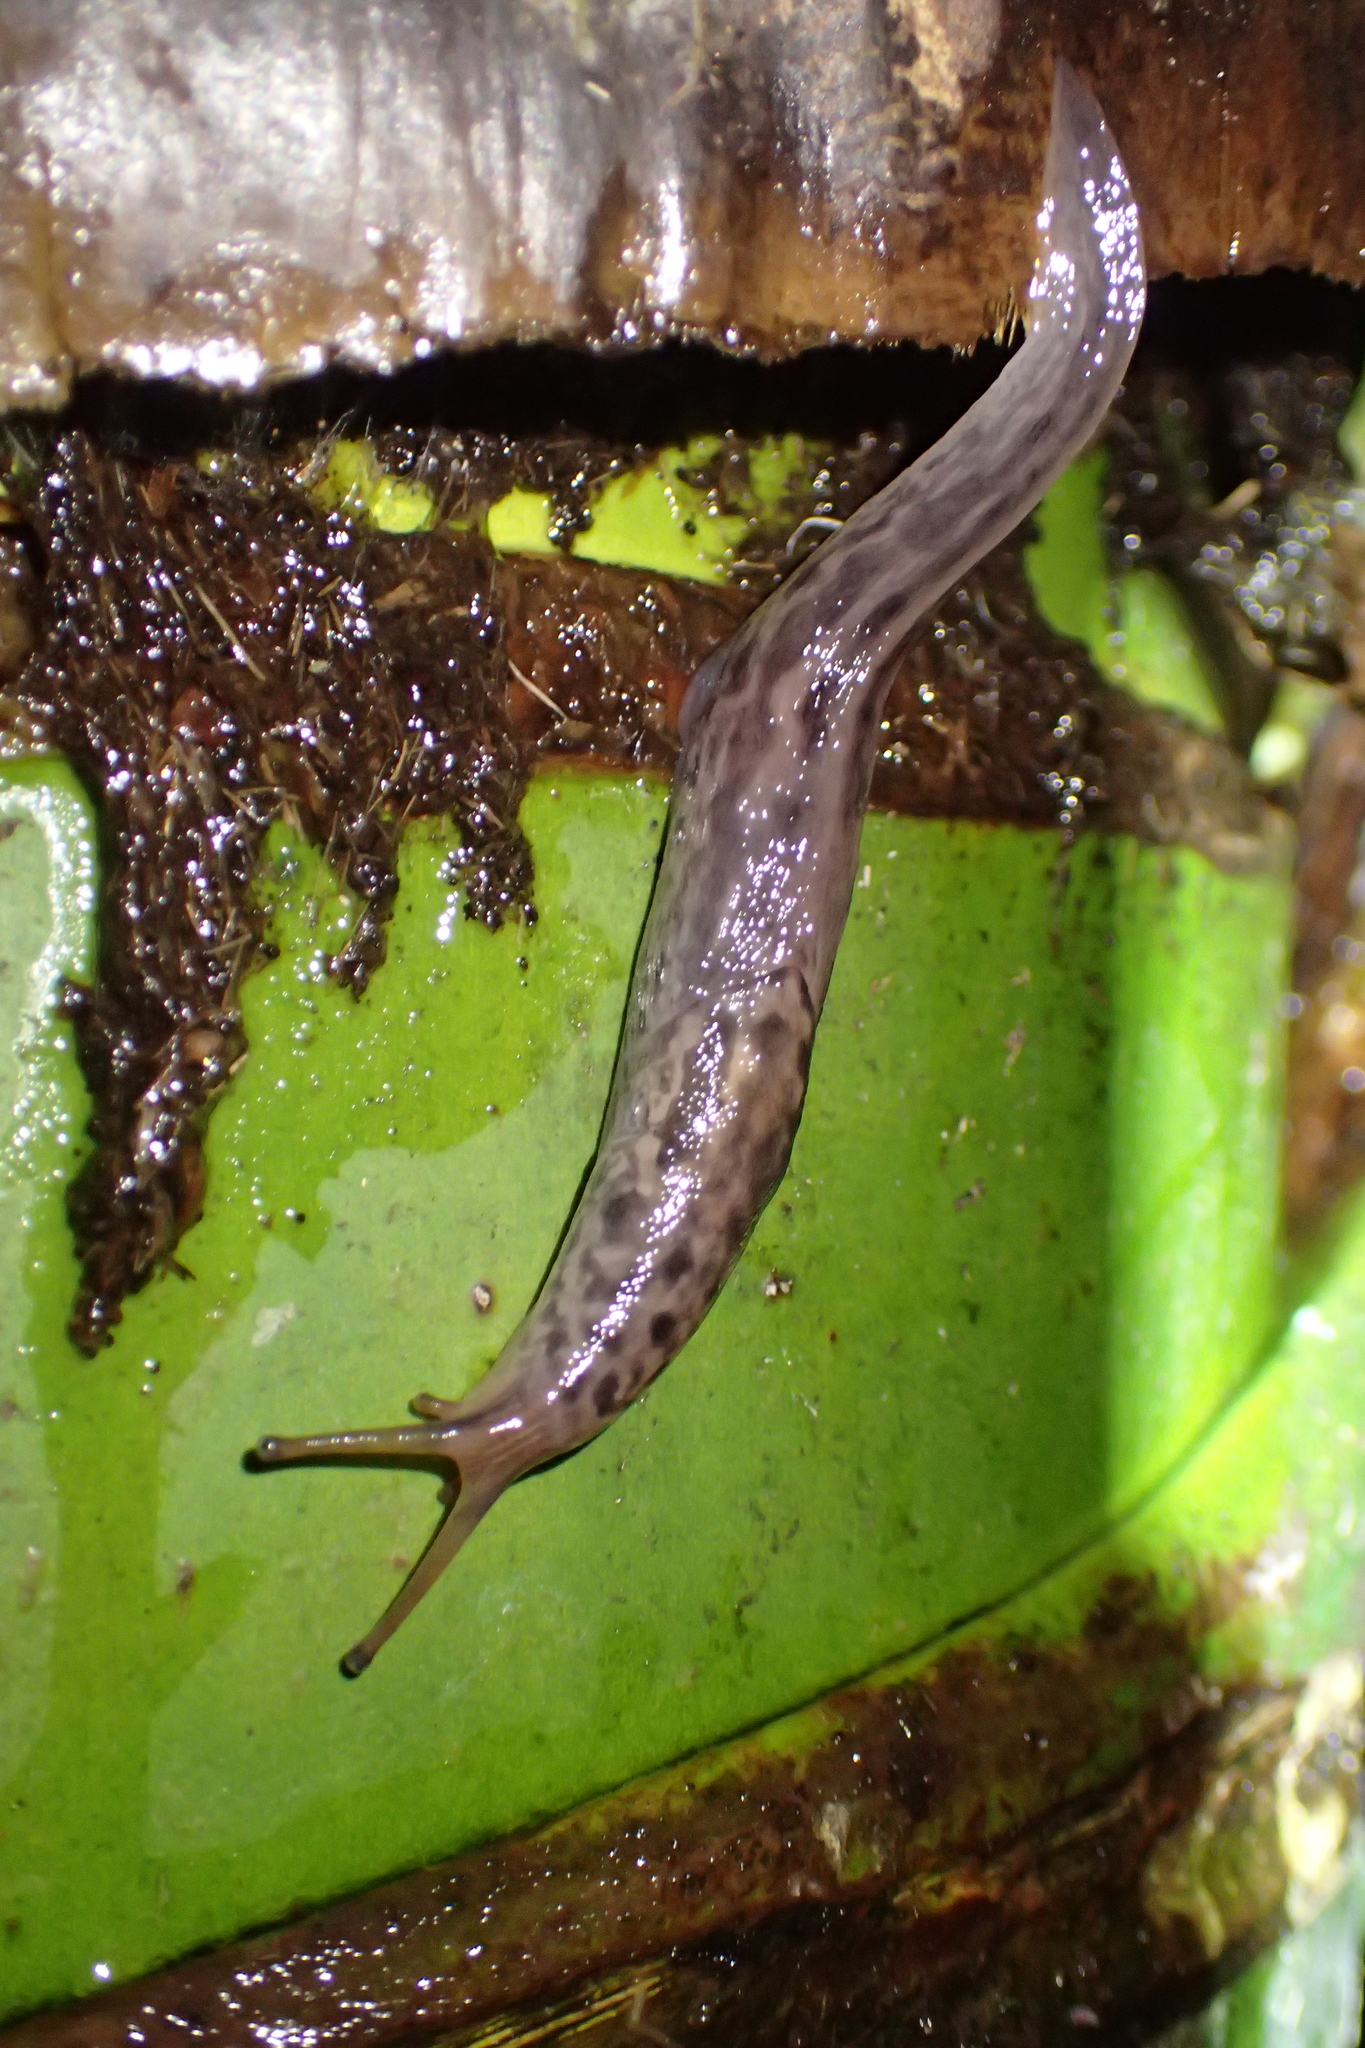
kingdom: Animalia
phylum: Mollusca
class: Gastropoda
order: Stylommatophora
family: Limacidae
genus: Limax
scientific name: Limax maximus
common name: Great grey slug
